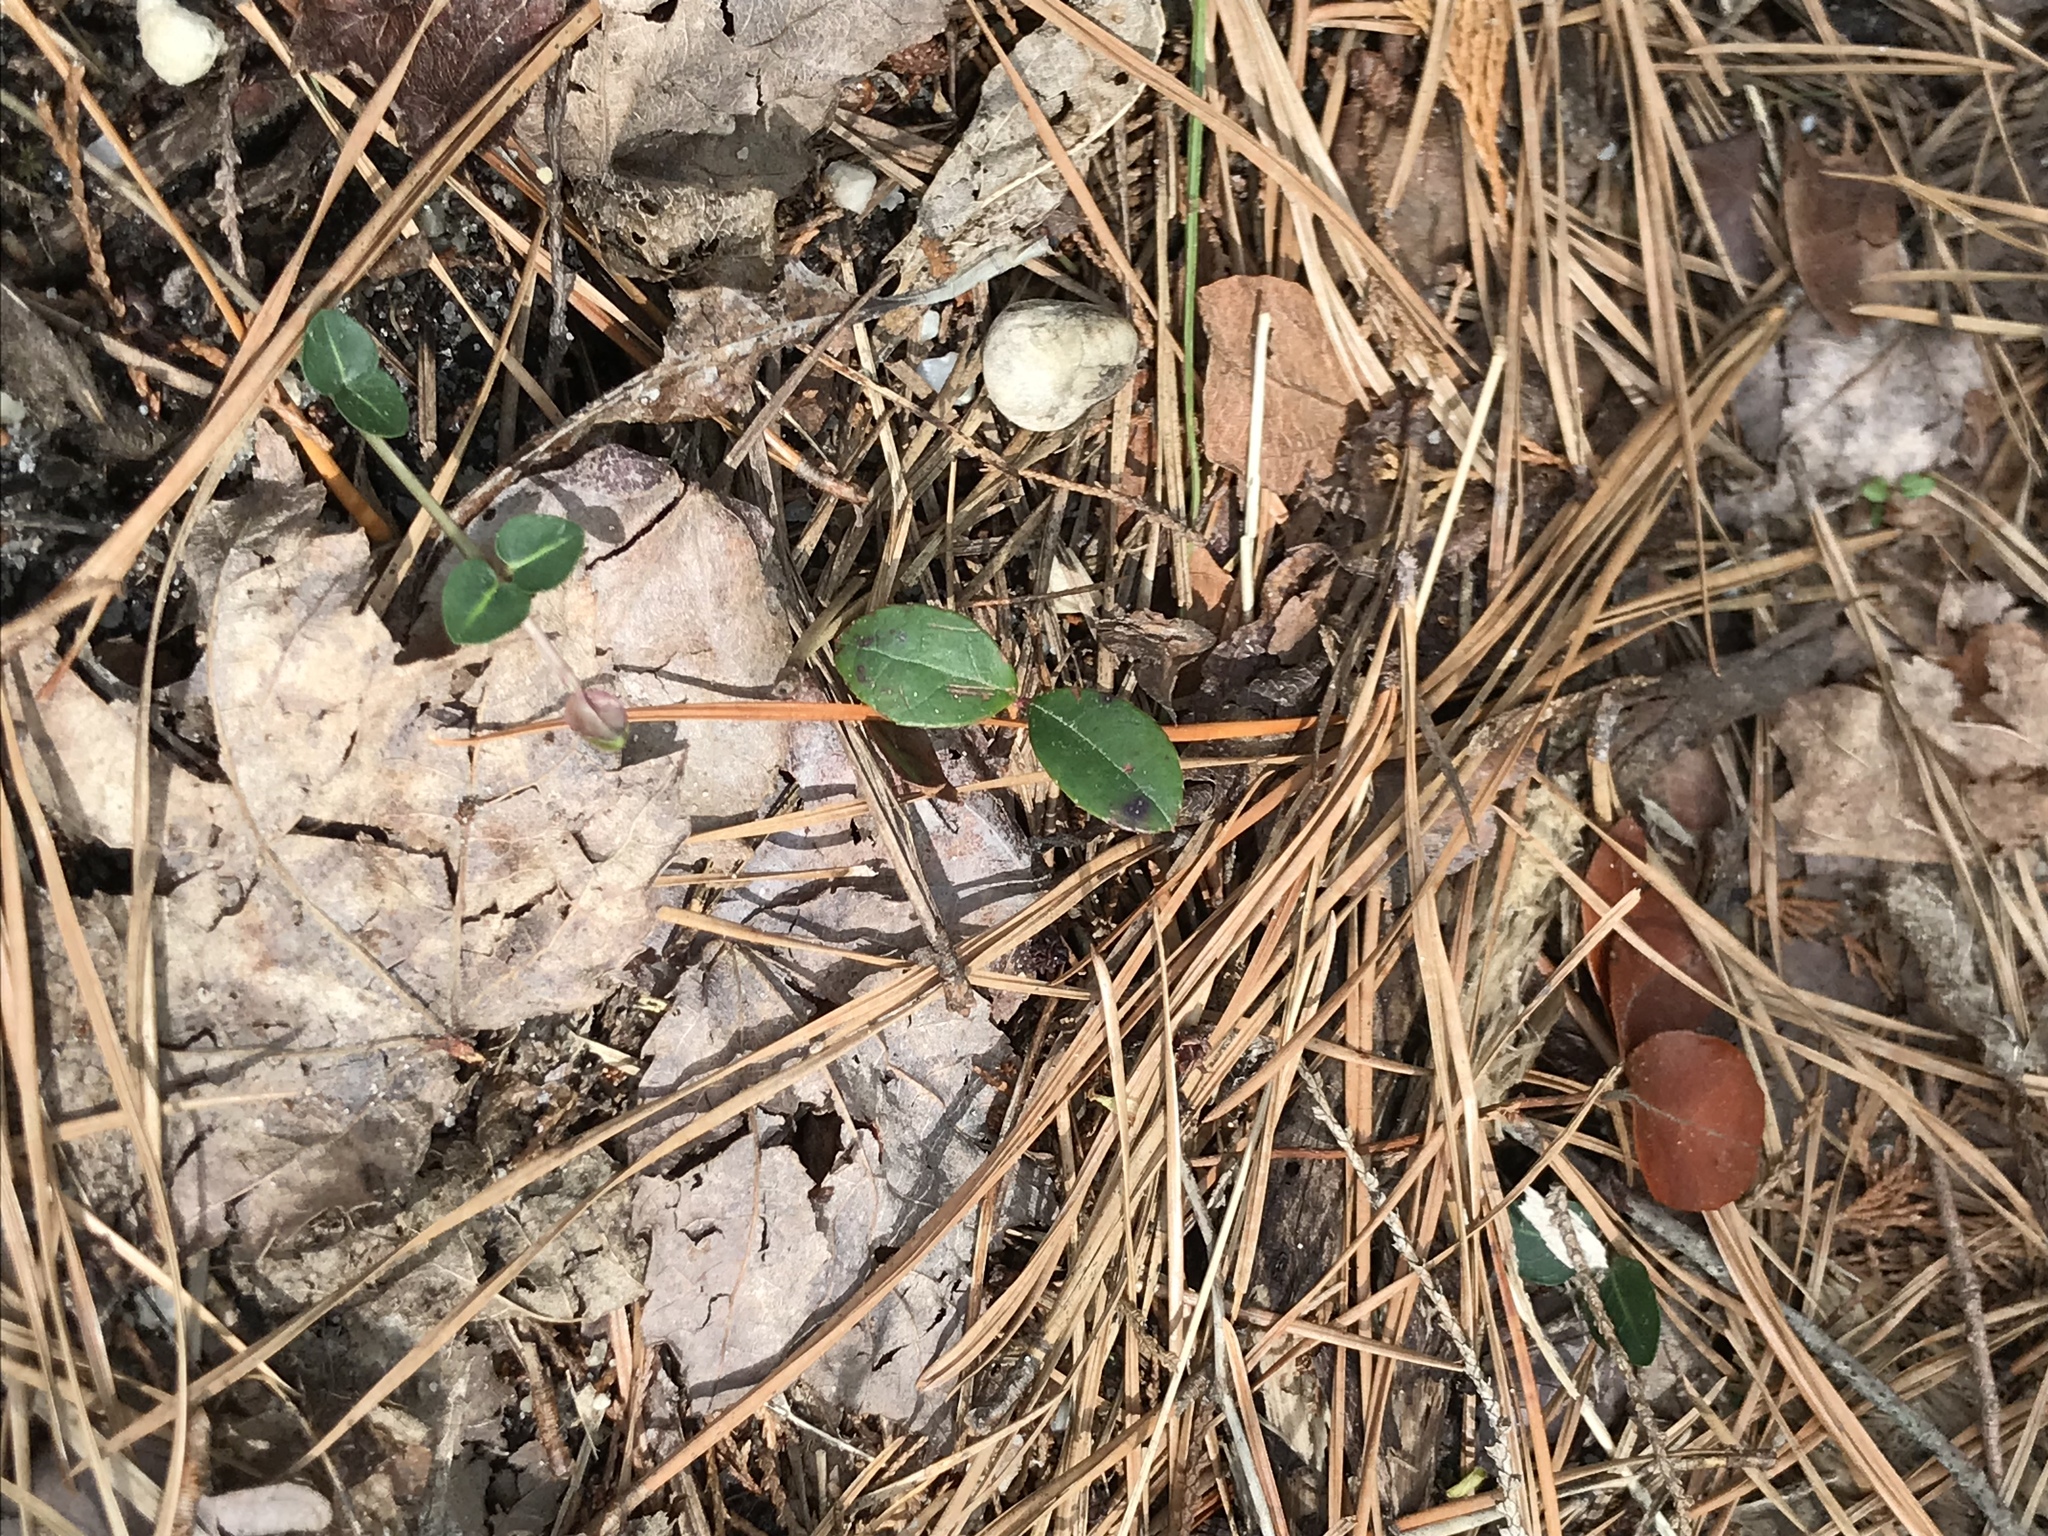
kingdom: Plantae
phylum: Tracheophyta
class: Magnoliopsida
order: Gentianales
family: Rubiaceae
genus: Mitchella
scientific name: Mitchella repens
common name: Partridge-berry
